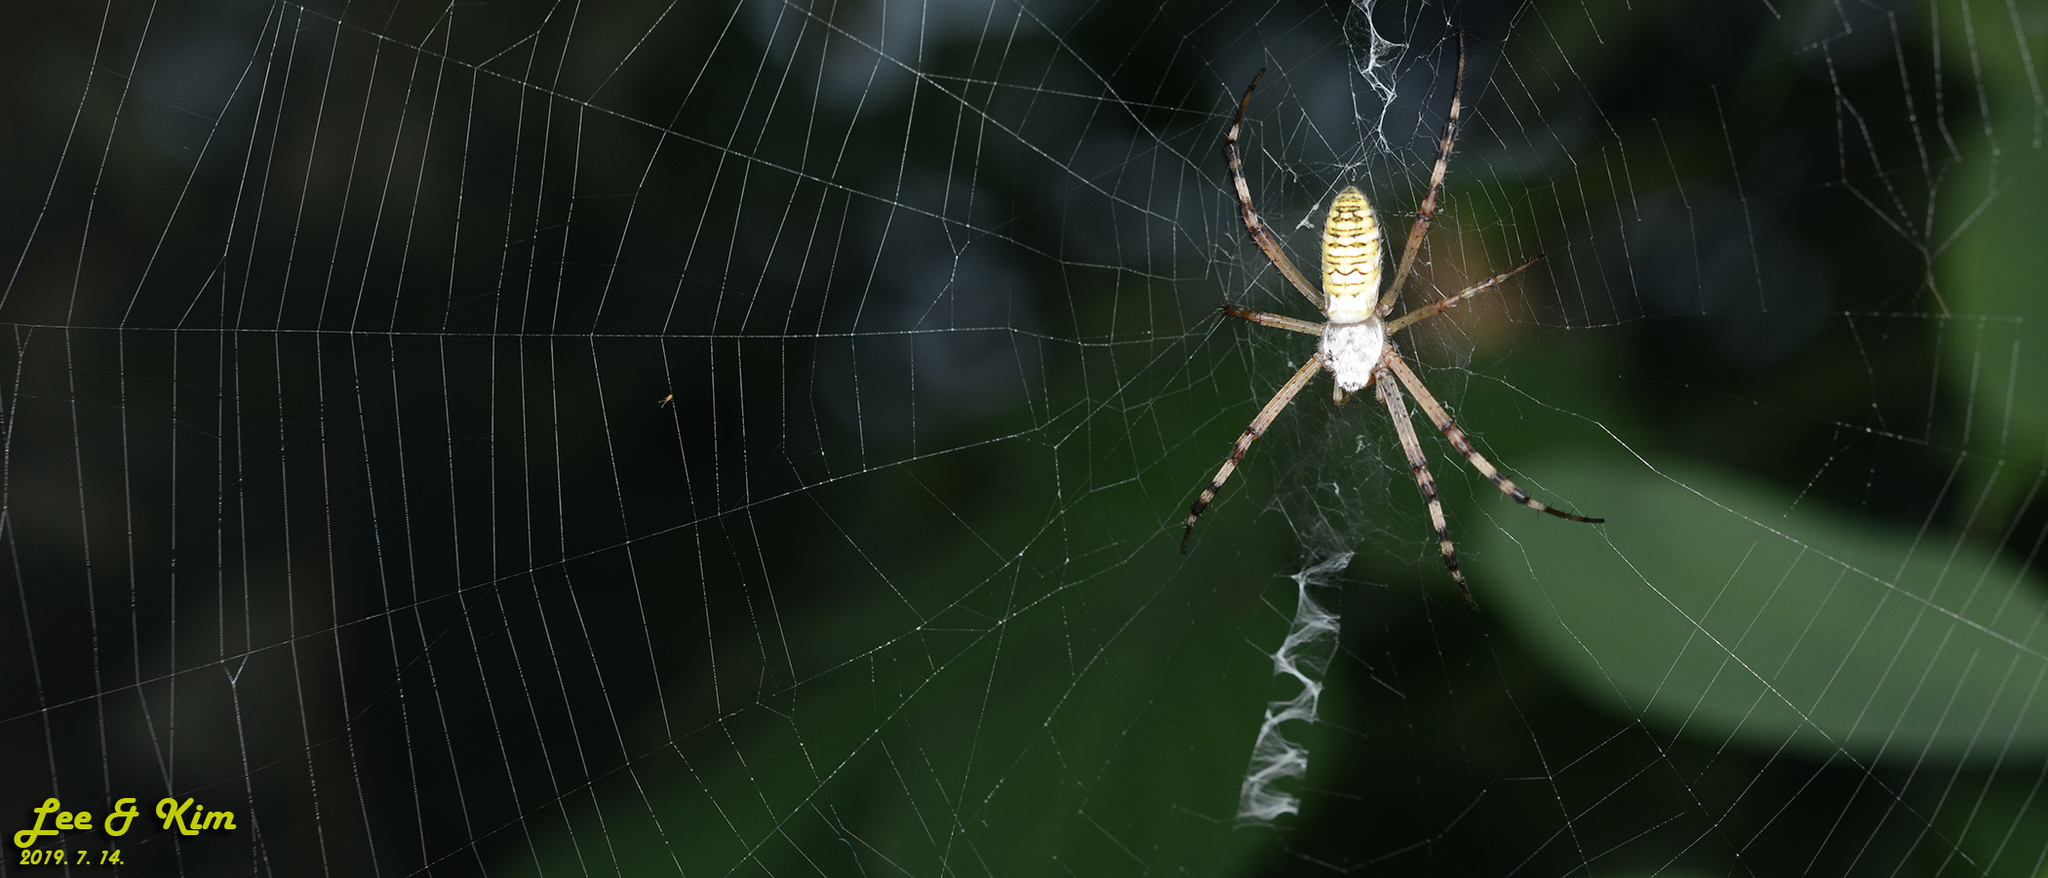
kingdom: Animalia
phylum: Arthropoda
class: Arachnida
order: Araneae
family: Araneidae
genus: Argiope
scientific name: Argiope bruennichi
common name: Wasp spider
